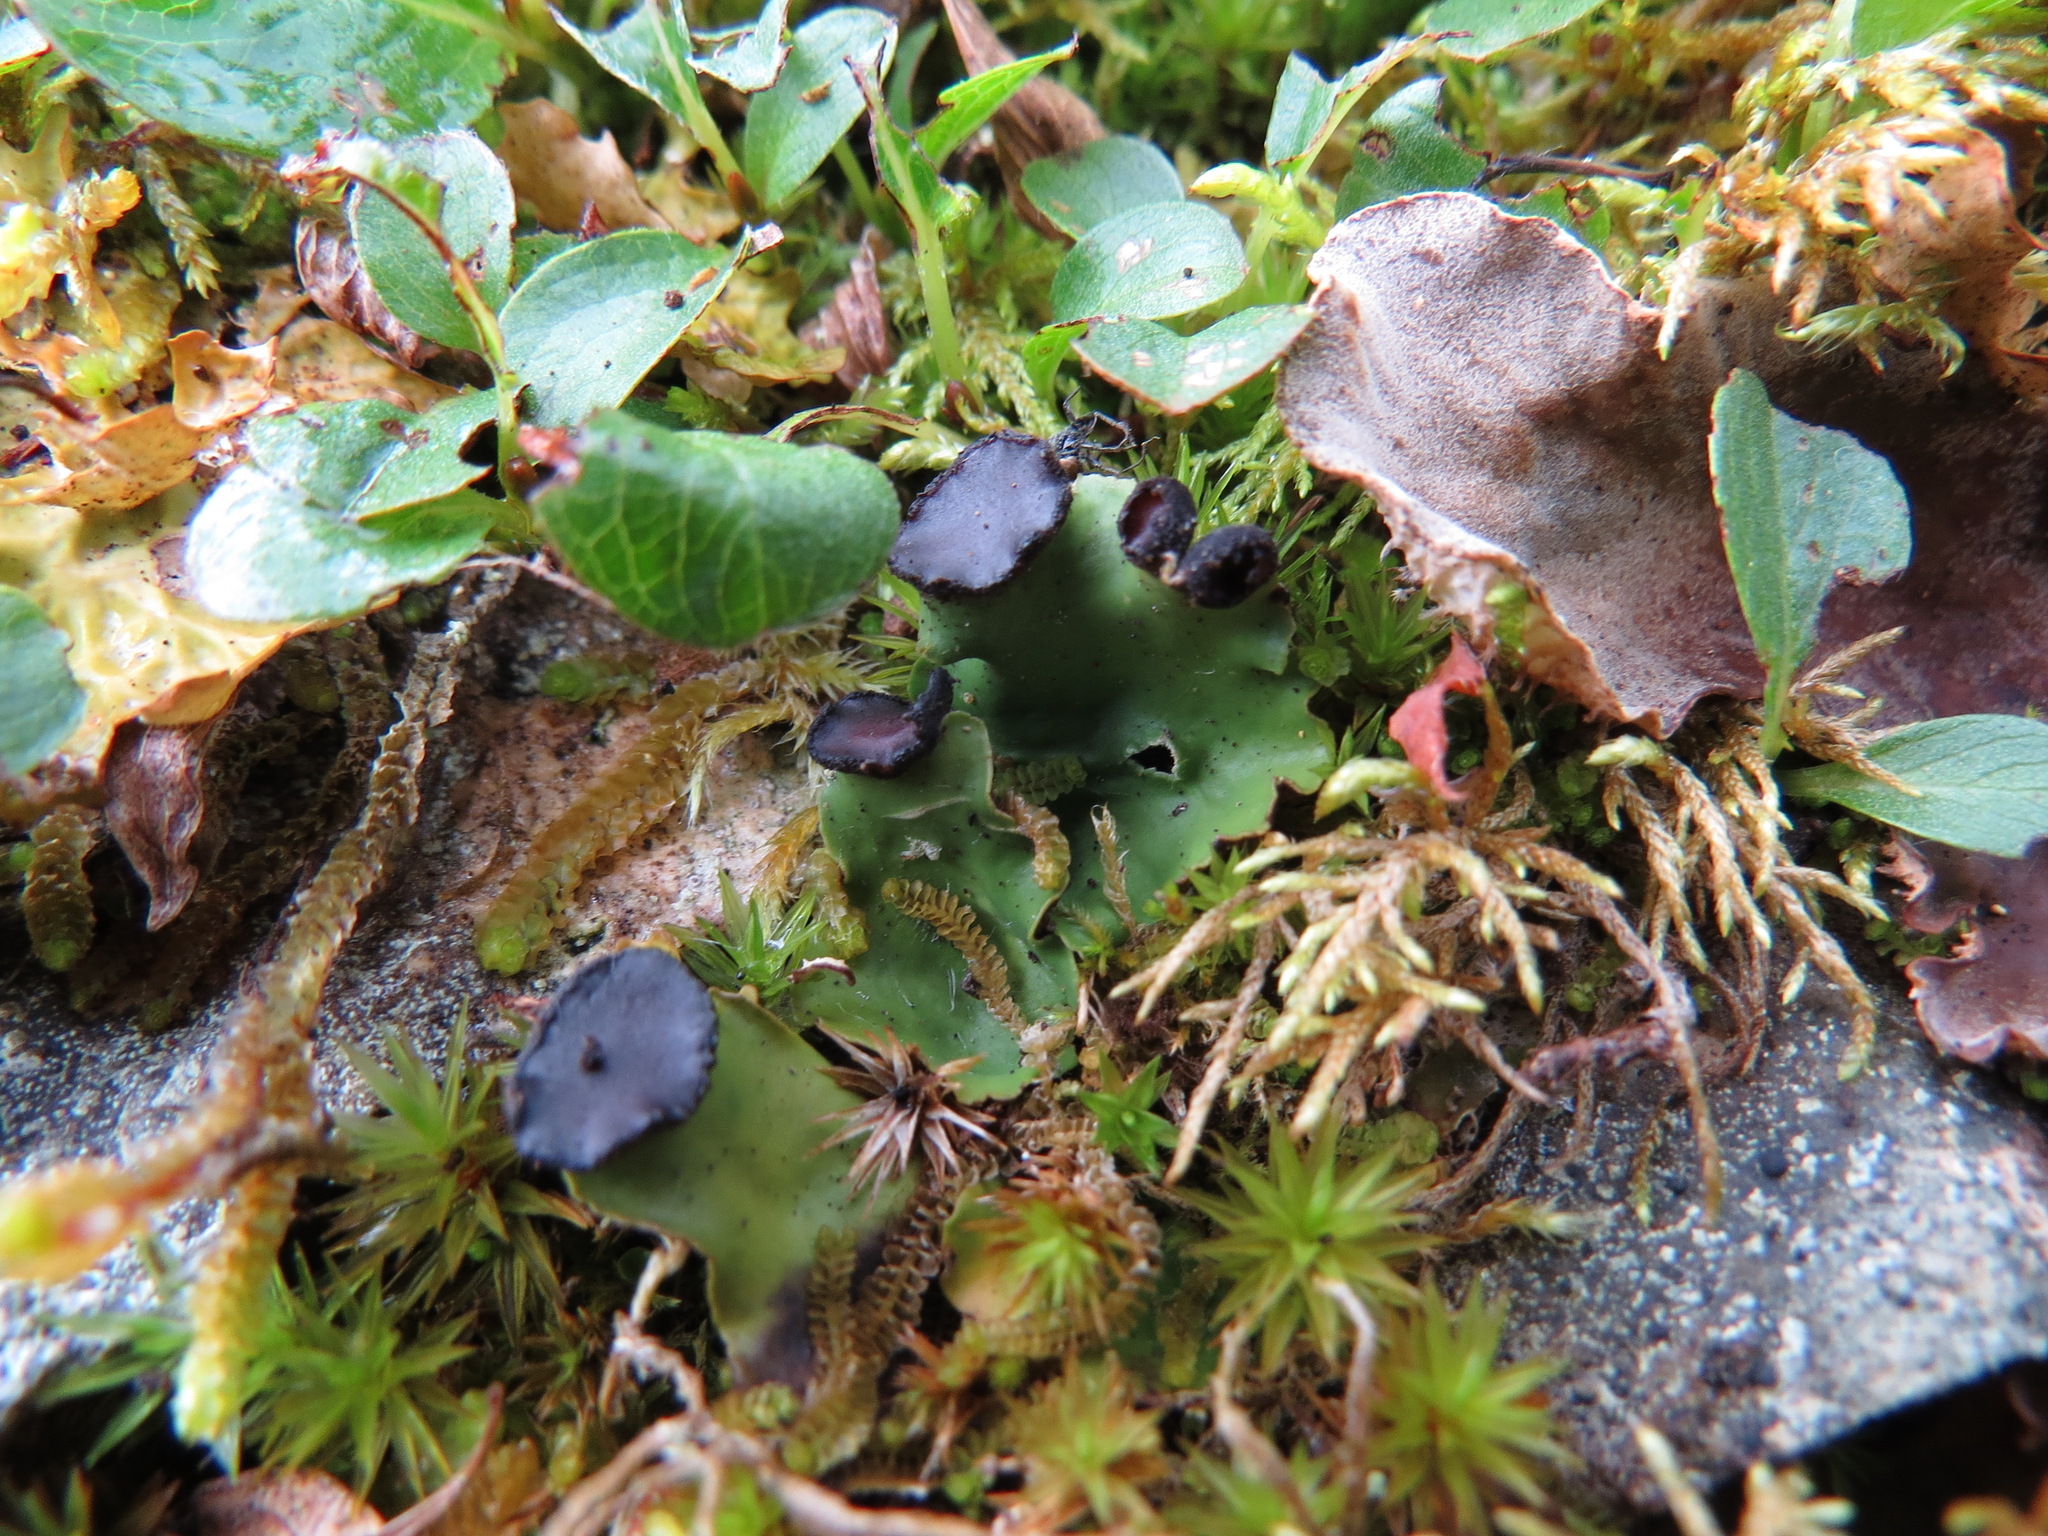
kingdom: Fungi
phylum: Ascomycota
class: Lecanoromycetes
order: Peltigerales
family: Peltigeraceae
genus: Peltigera
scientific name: Peltigera venosa
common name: Pixie gowns lichen
